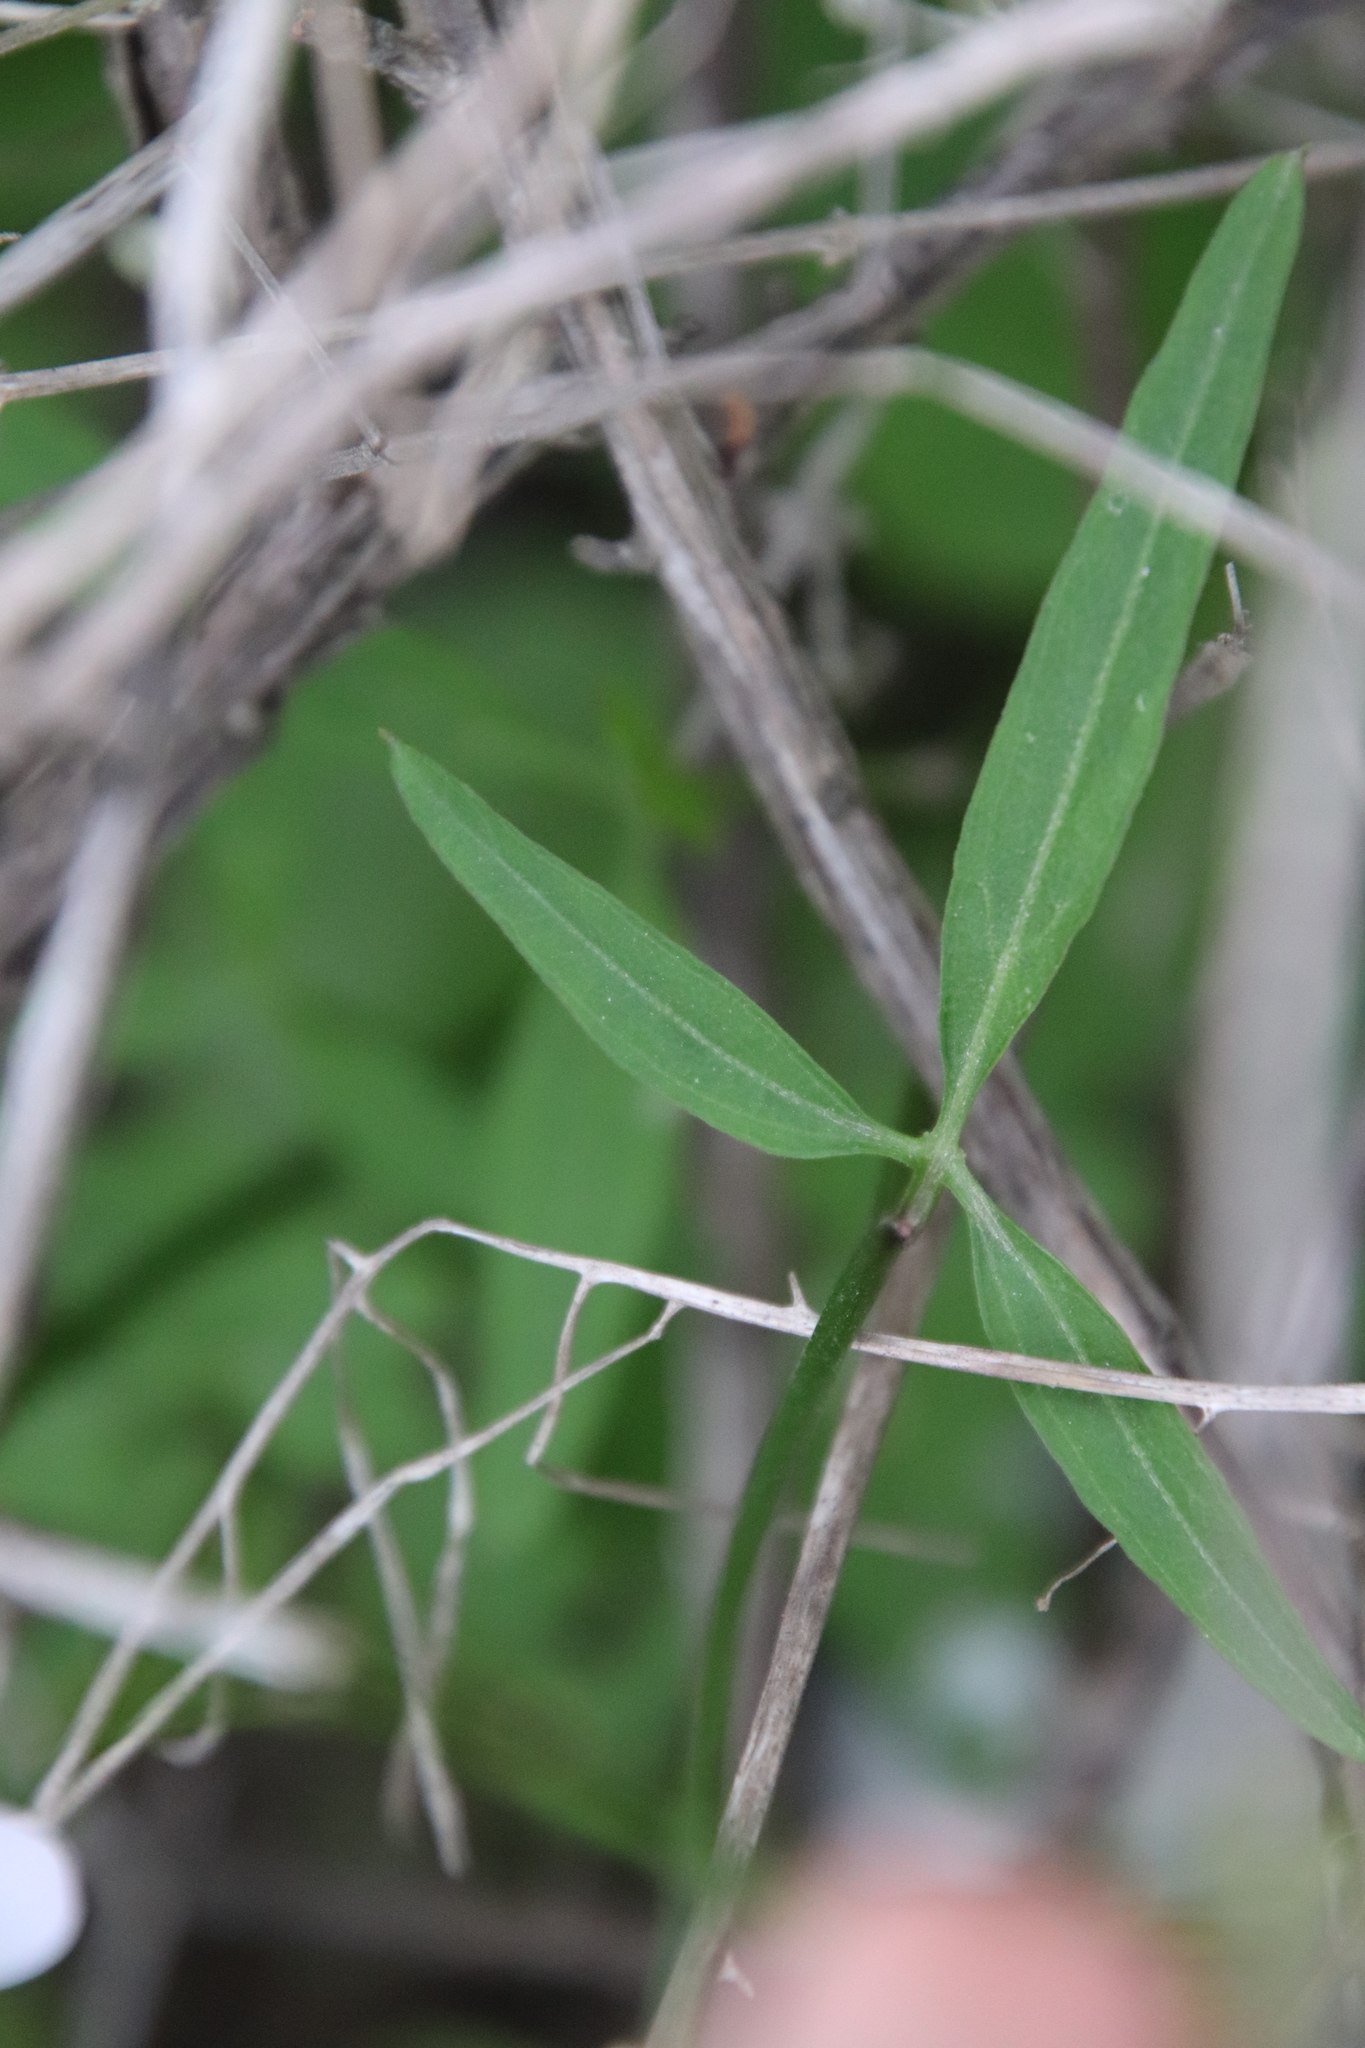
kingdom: Plantae
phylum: Tracheophyta
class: Magnoliopsida
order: Brassicales
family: Brassicaceae
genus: Cardamine
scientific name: Cardamine californica
